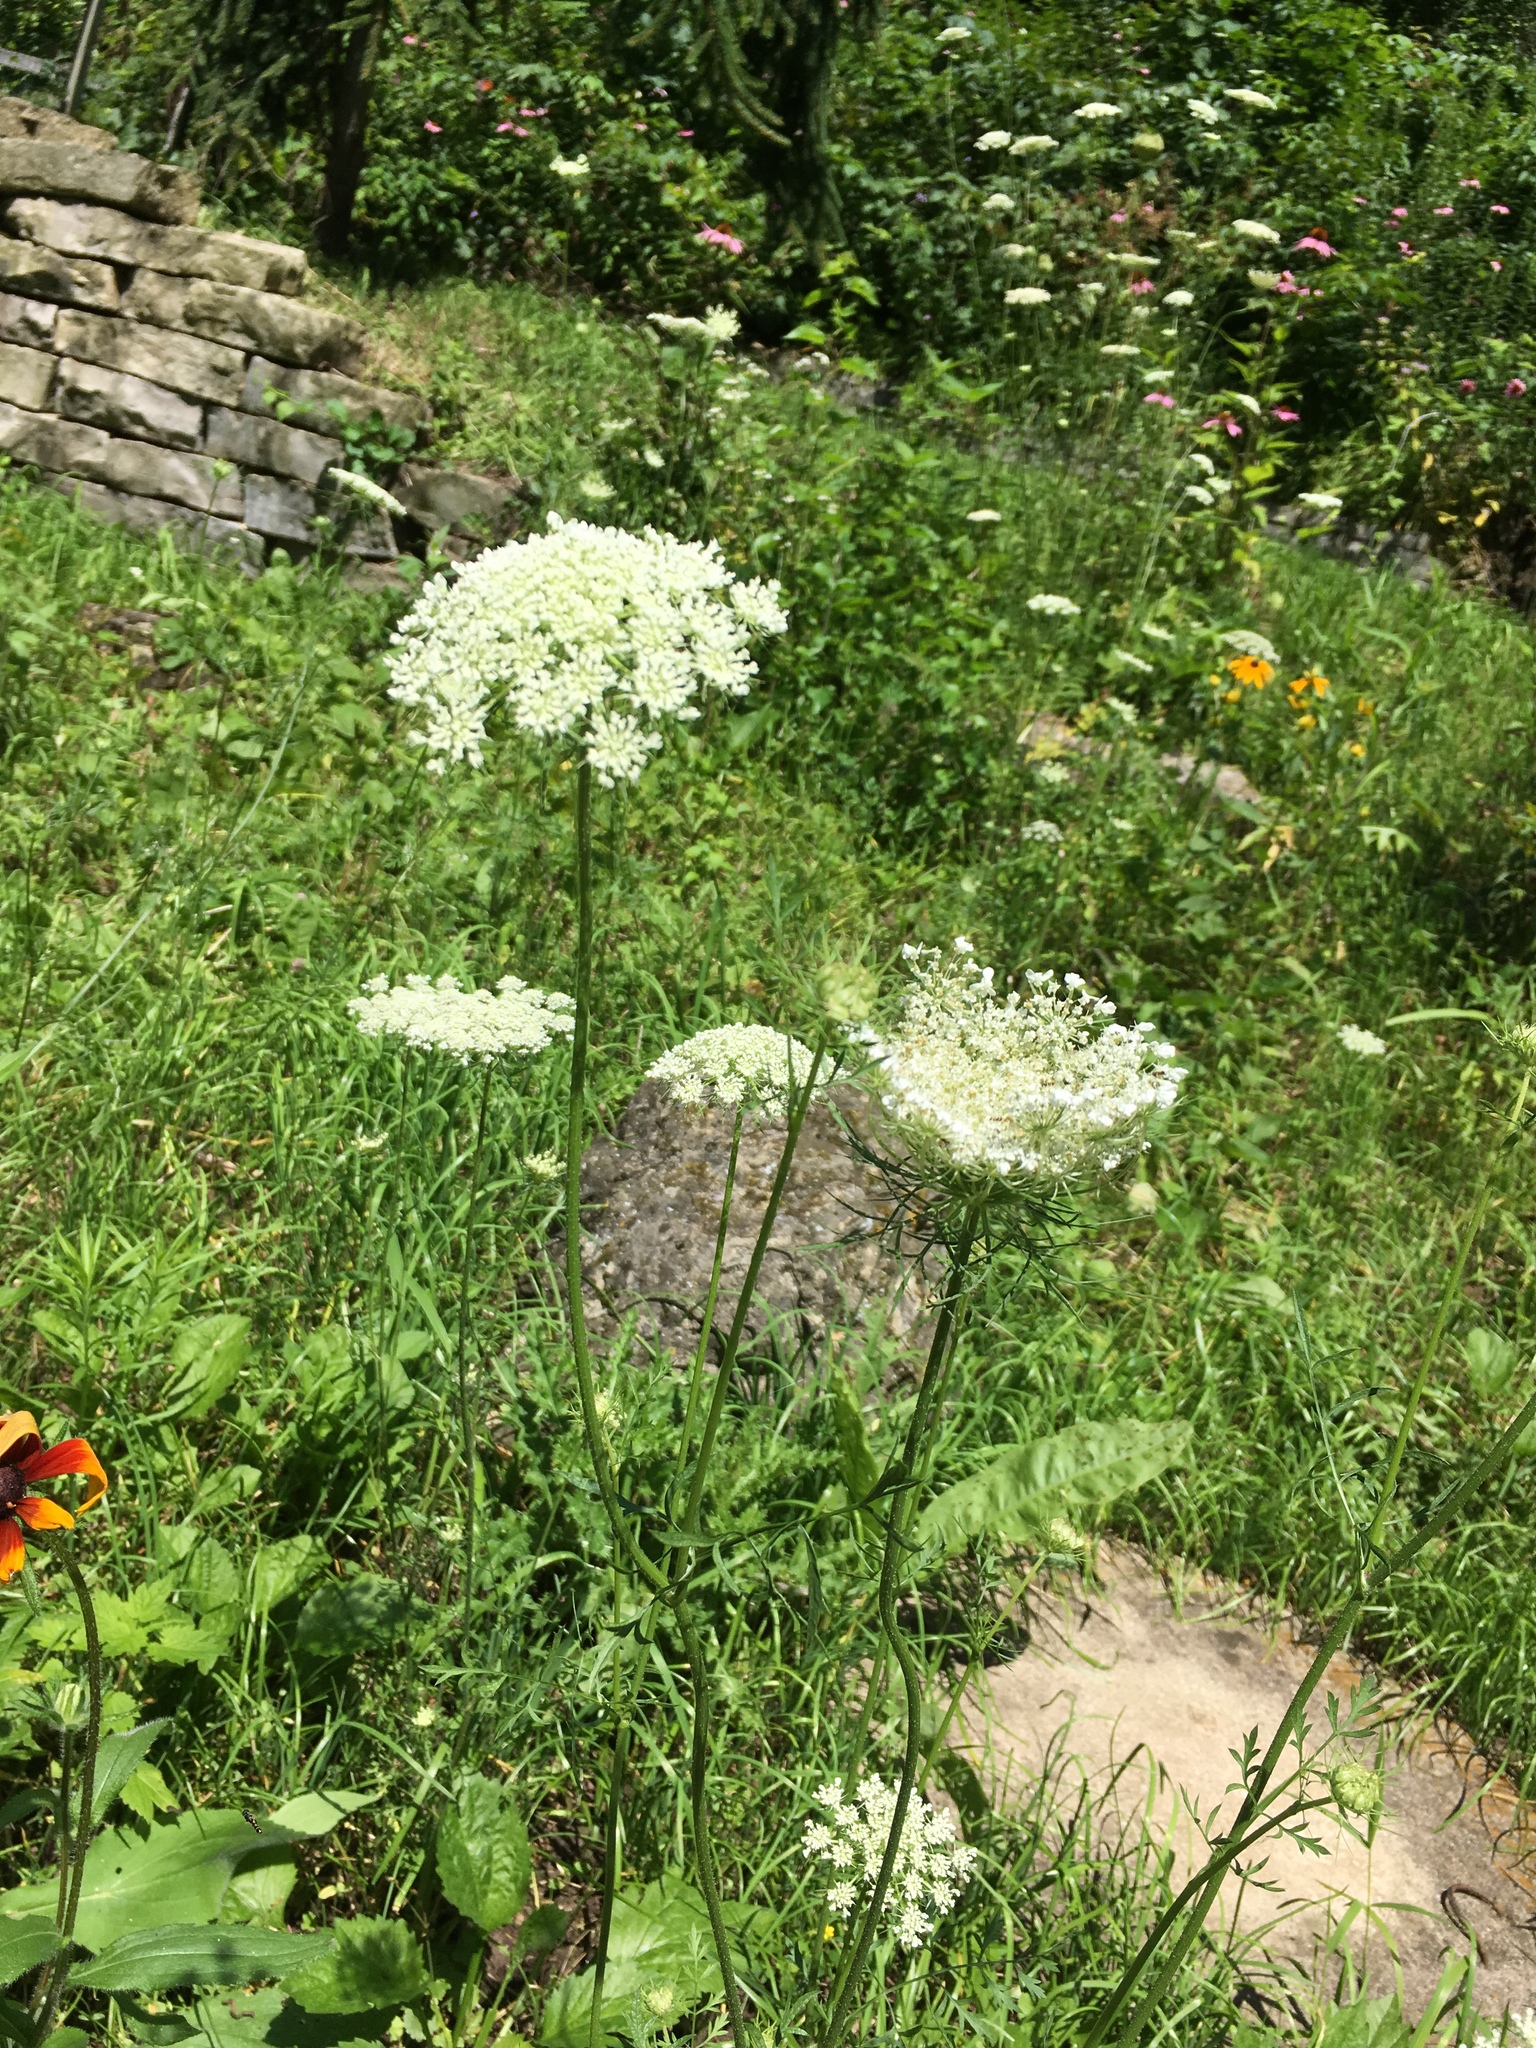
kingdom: Plantae
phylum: Tracheophyta
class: Magnoliopsida
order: Apiales
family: Apiaceae
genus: Daucus
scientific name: Daucus carota
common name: Wild carrot
